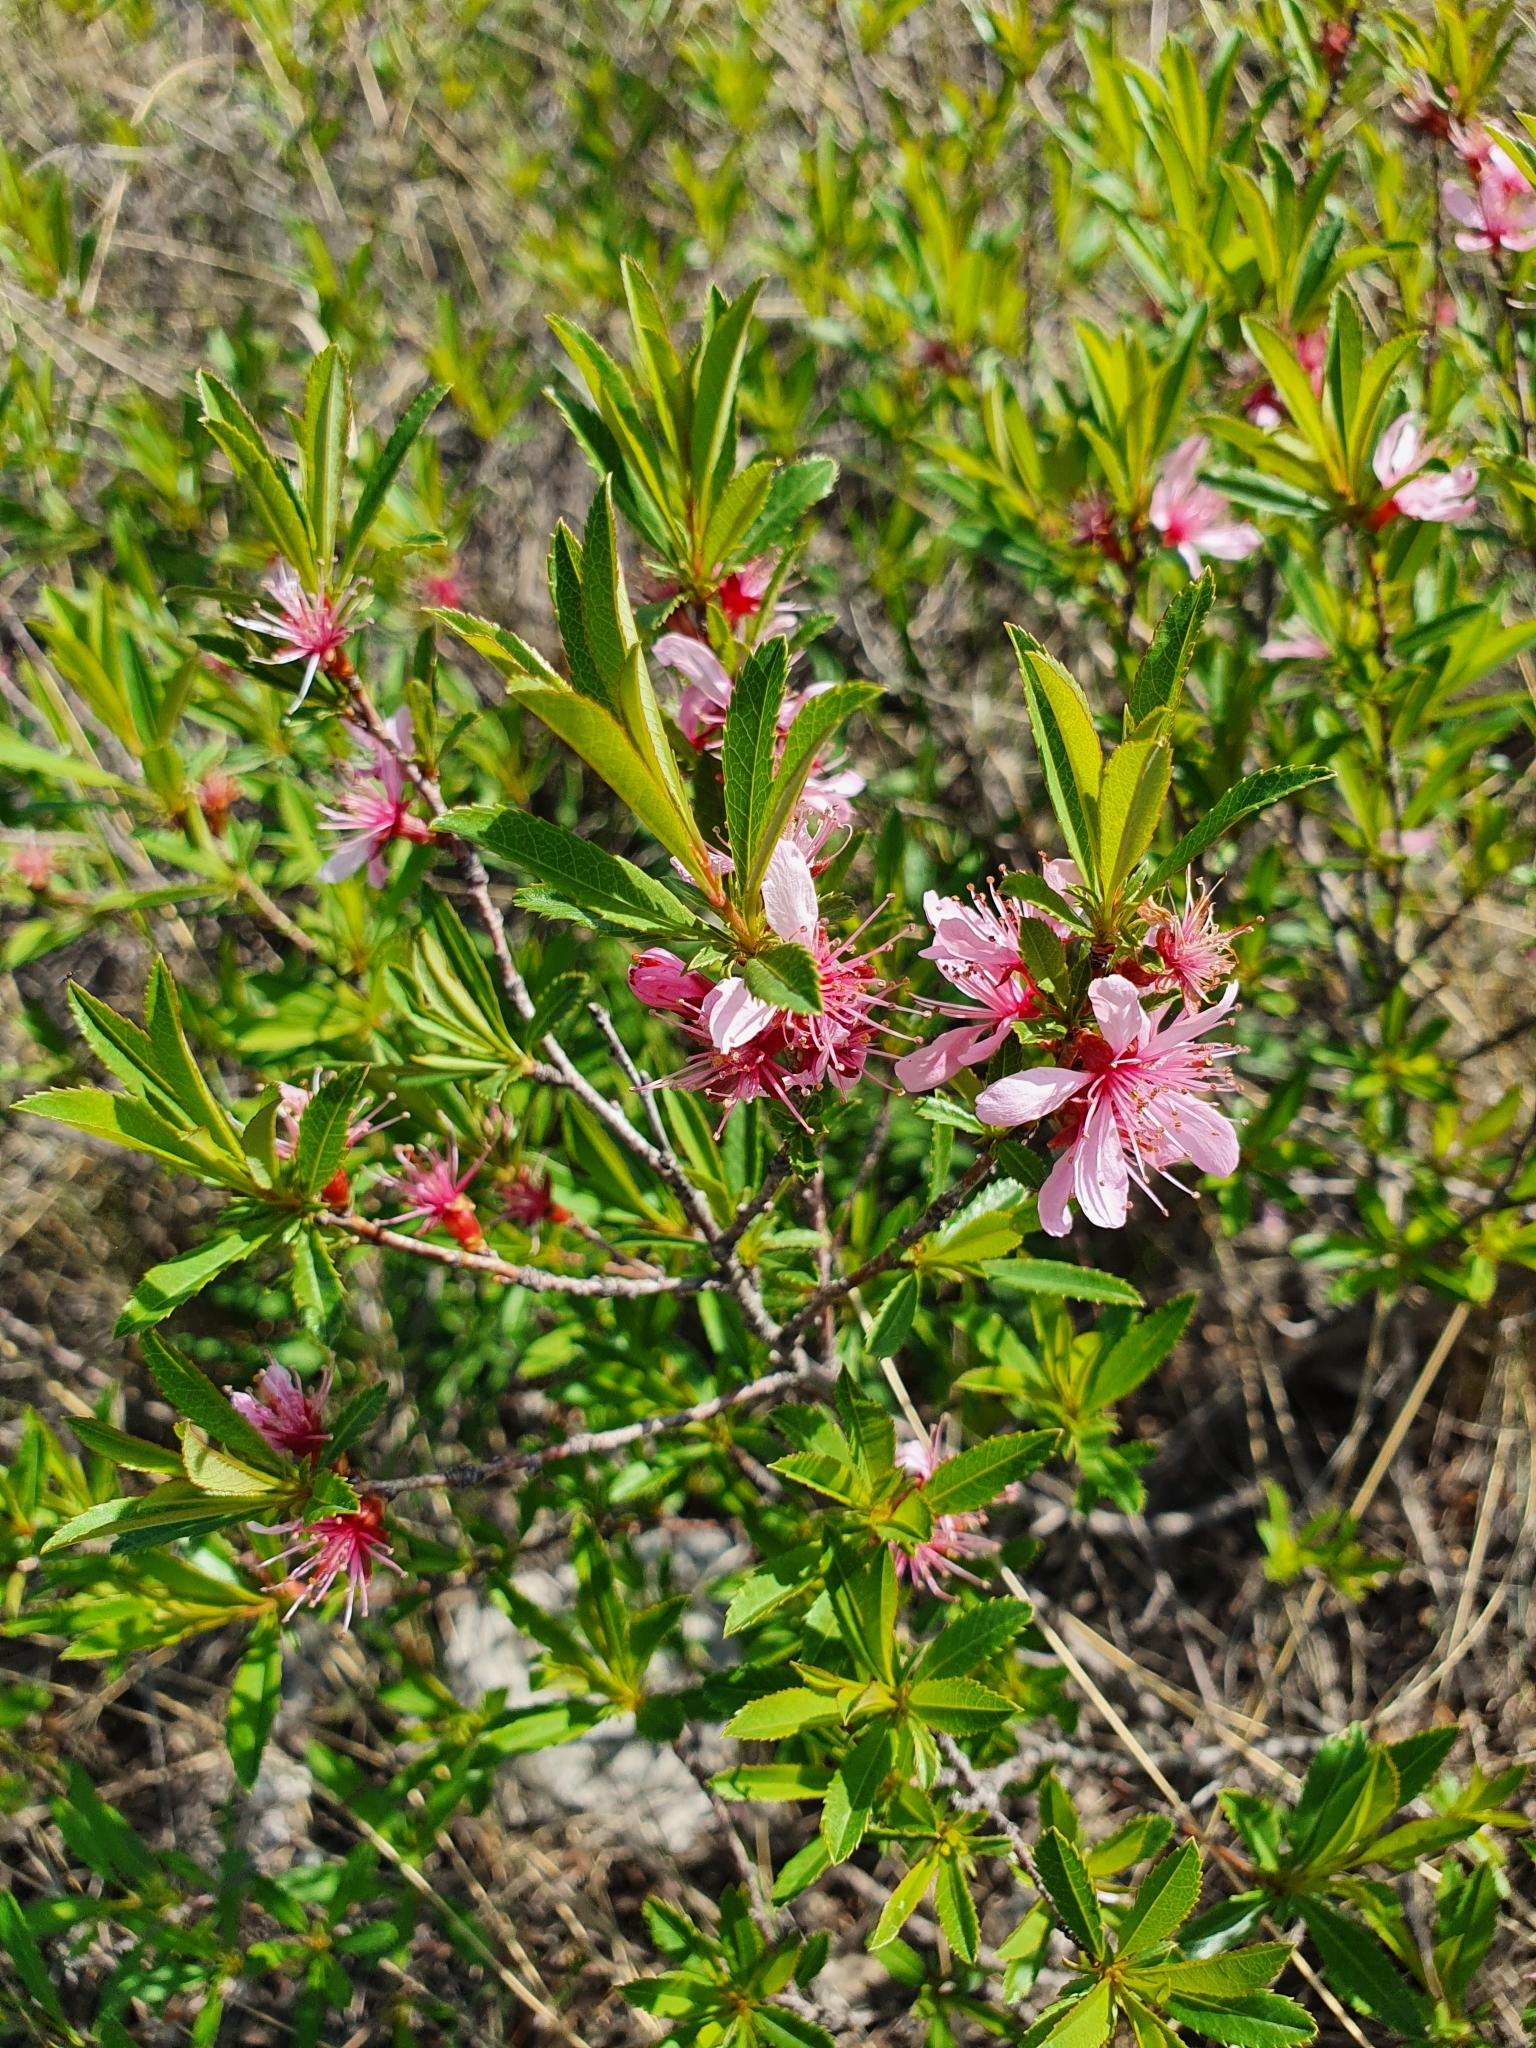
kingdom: Plantae
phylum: Tracheophyta
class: Magnoliopsida
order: Rosales
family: Rosaceae
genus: Prunus
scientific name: Prunus tenella
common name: Dwarf russian almond
